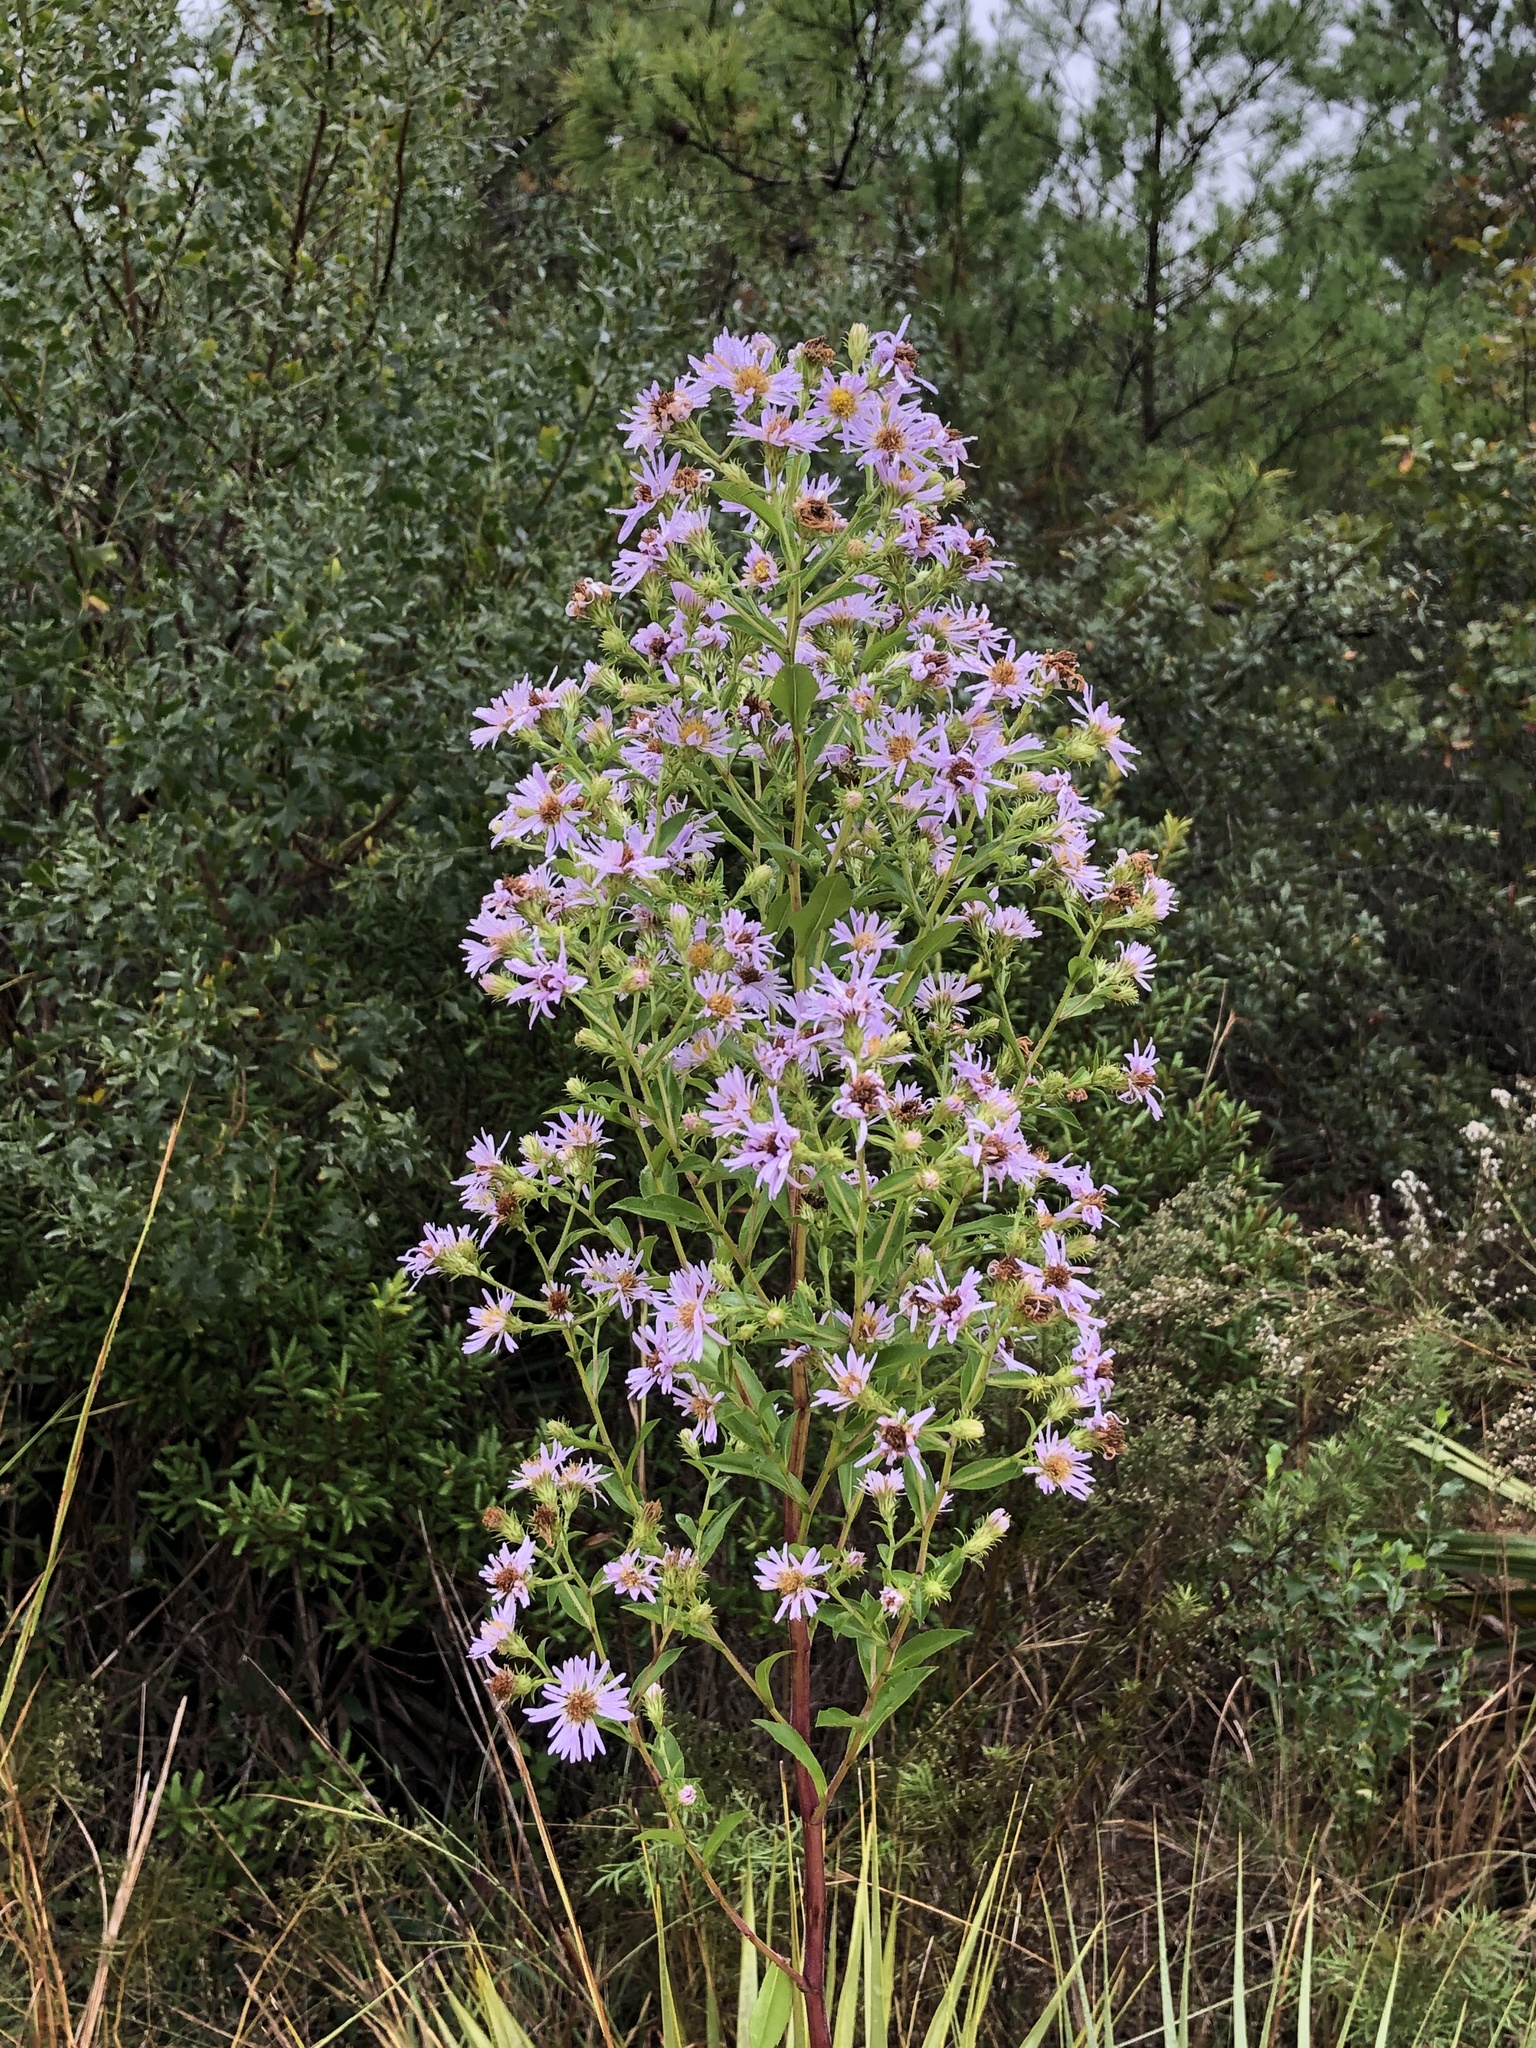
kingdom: Plantae
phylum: Tracheophyta
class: Magnoliopsida
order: Asterales
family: Asteraceae
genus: Symphyotrichum
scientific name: Symphyotrichum elliottii
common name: Southern swamp aster
